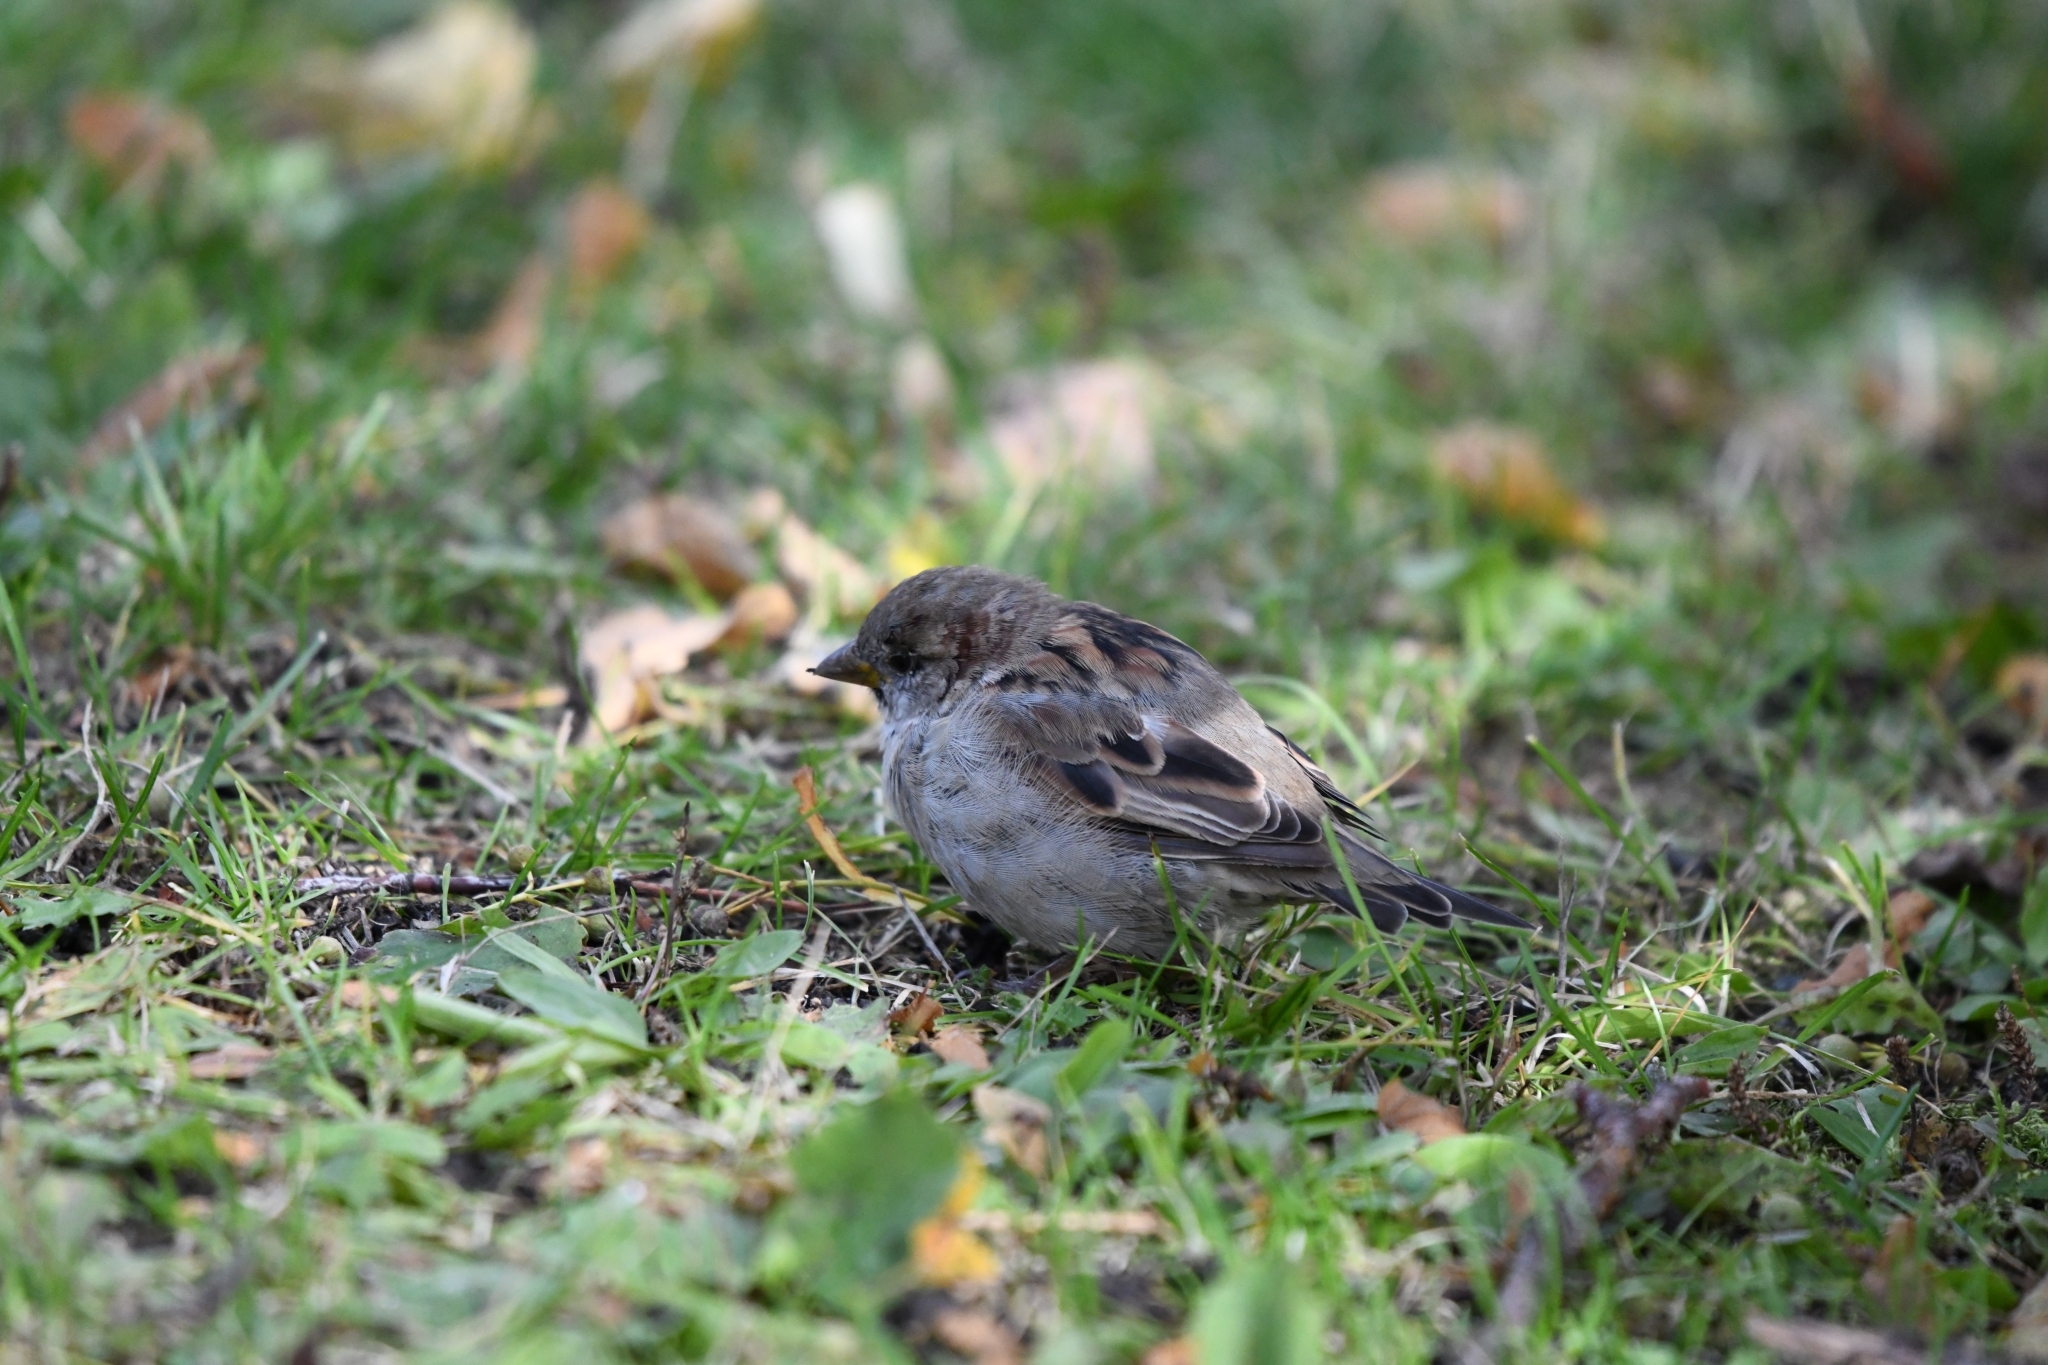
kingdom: Animalia
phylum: Chordata
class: Aves
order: Passeriformes
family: Passeridae
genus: Passer
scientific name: Passer domesticus
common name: House sparrow
